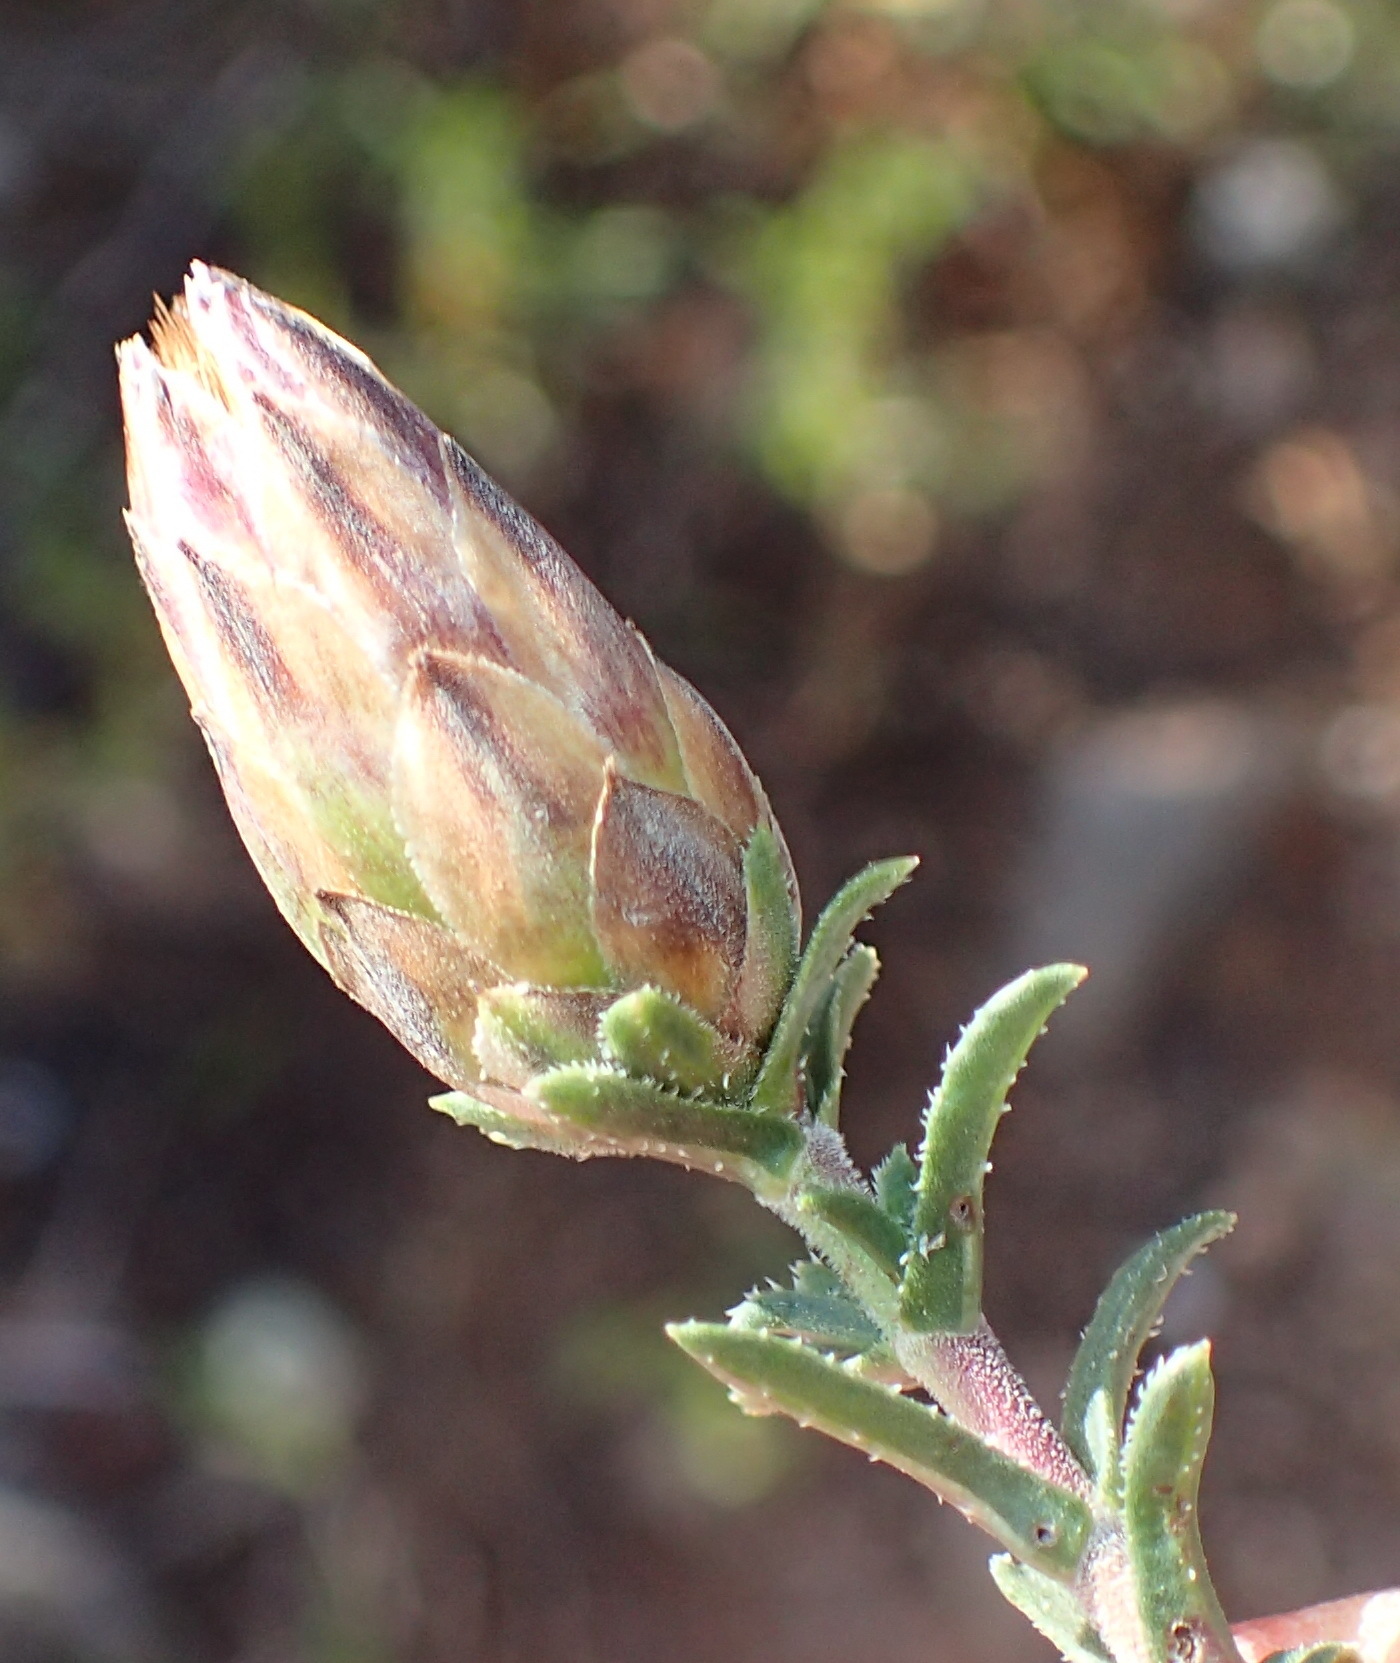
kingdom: Plantae
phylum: Tracheophyta
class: Magnoliopsida
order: Asterales
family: Asteraceae
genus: Pteronia
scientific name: Pteronia staehelinoides
